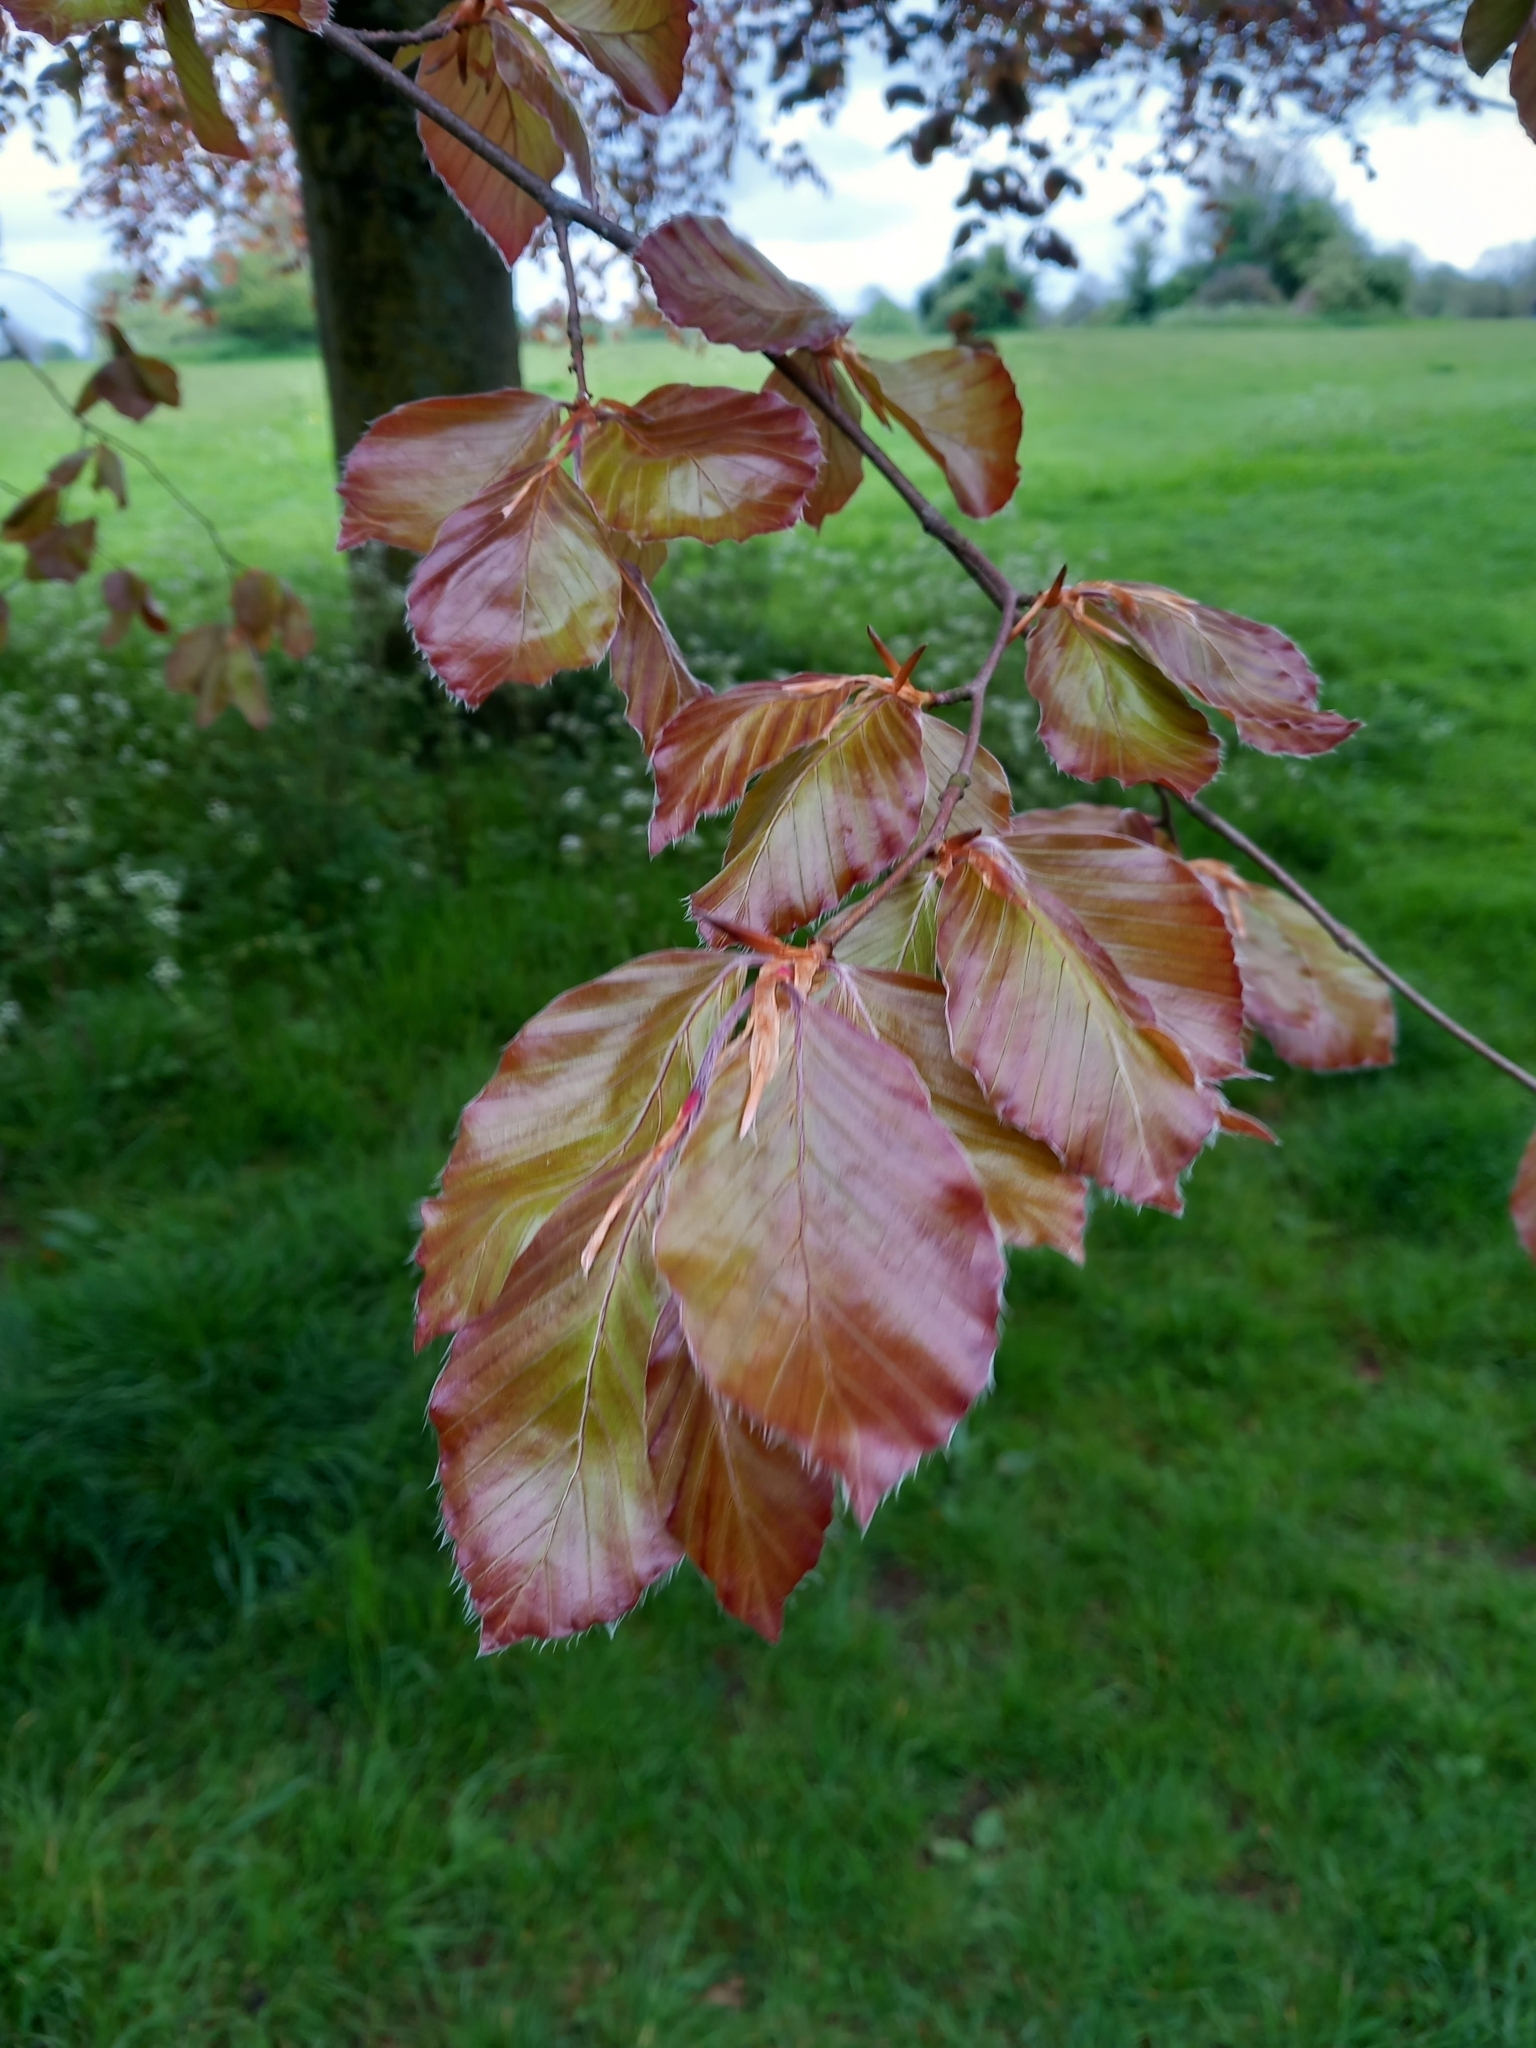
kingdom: Plantae
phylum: Tracheophyta
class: Magnoliopsida
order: Fagales
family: Fagaceae
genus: Fagus
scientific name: Fagus sylvatica
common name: Beech
